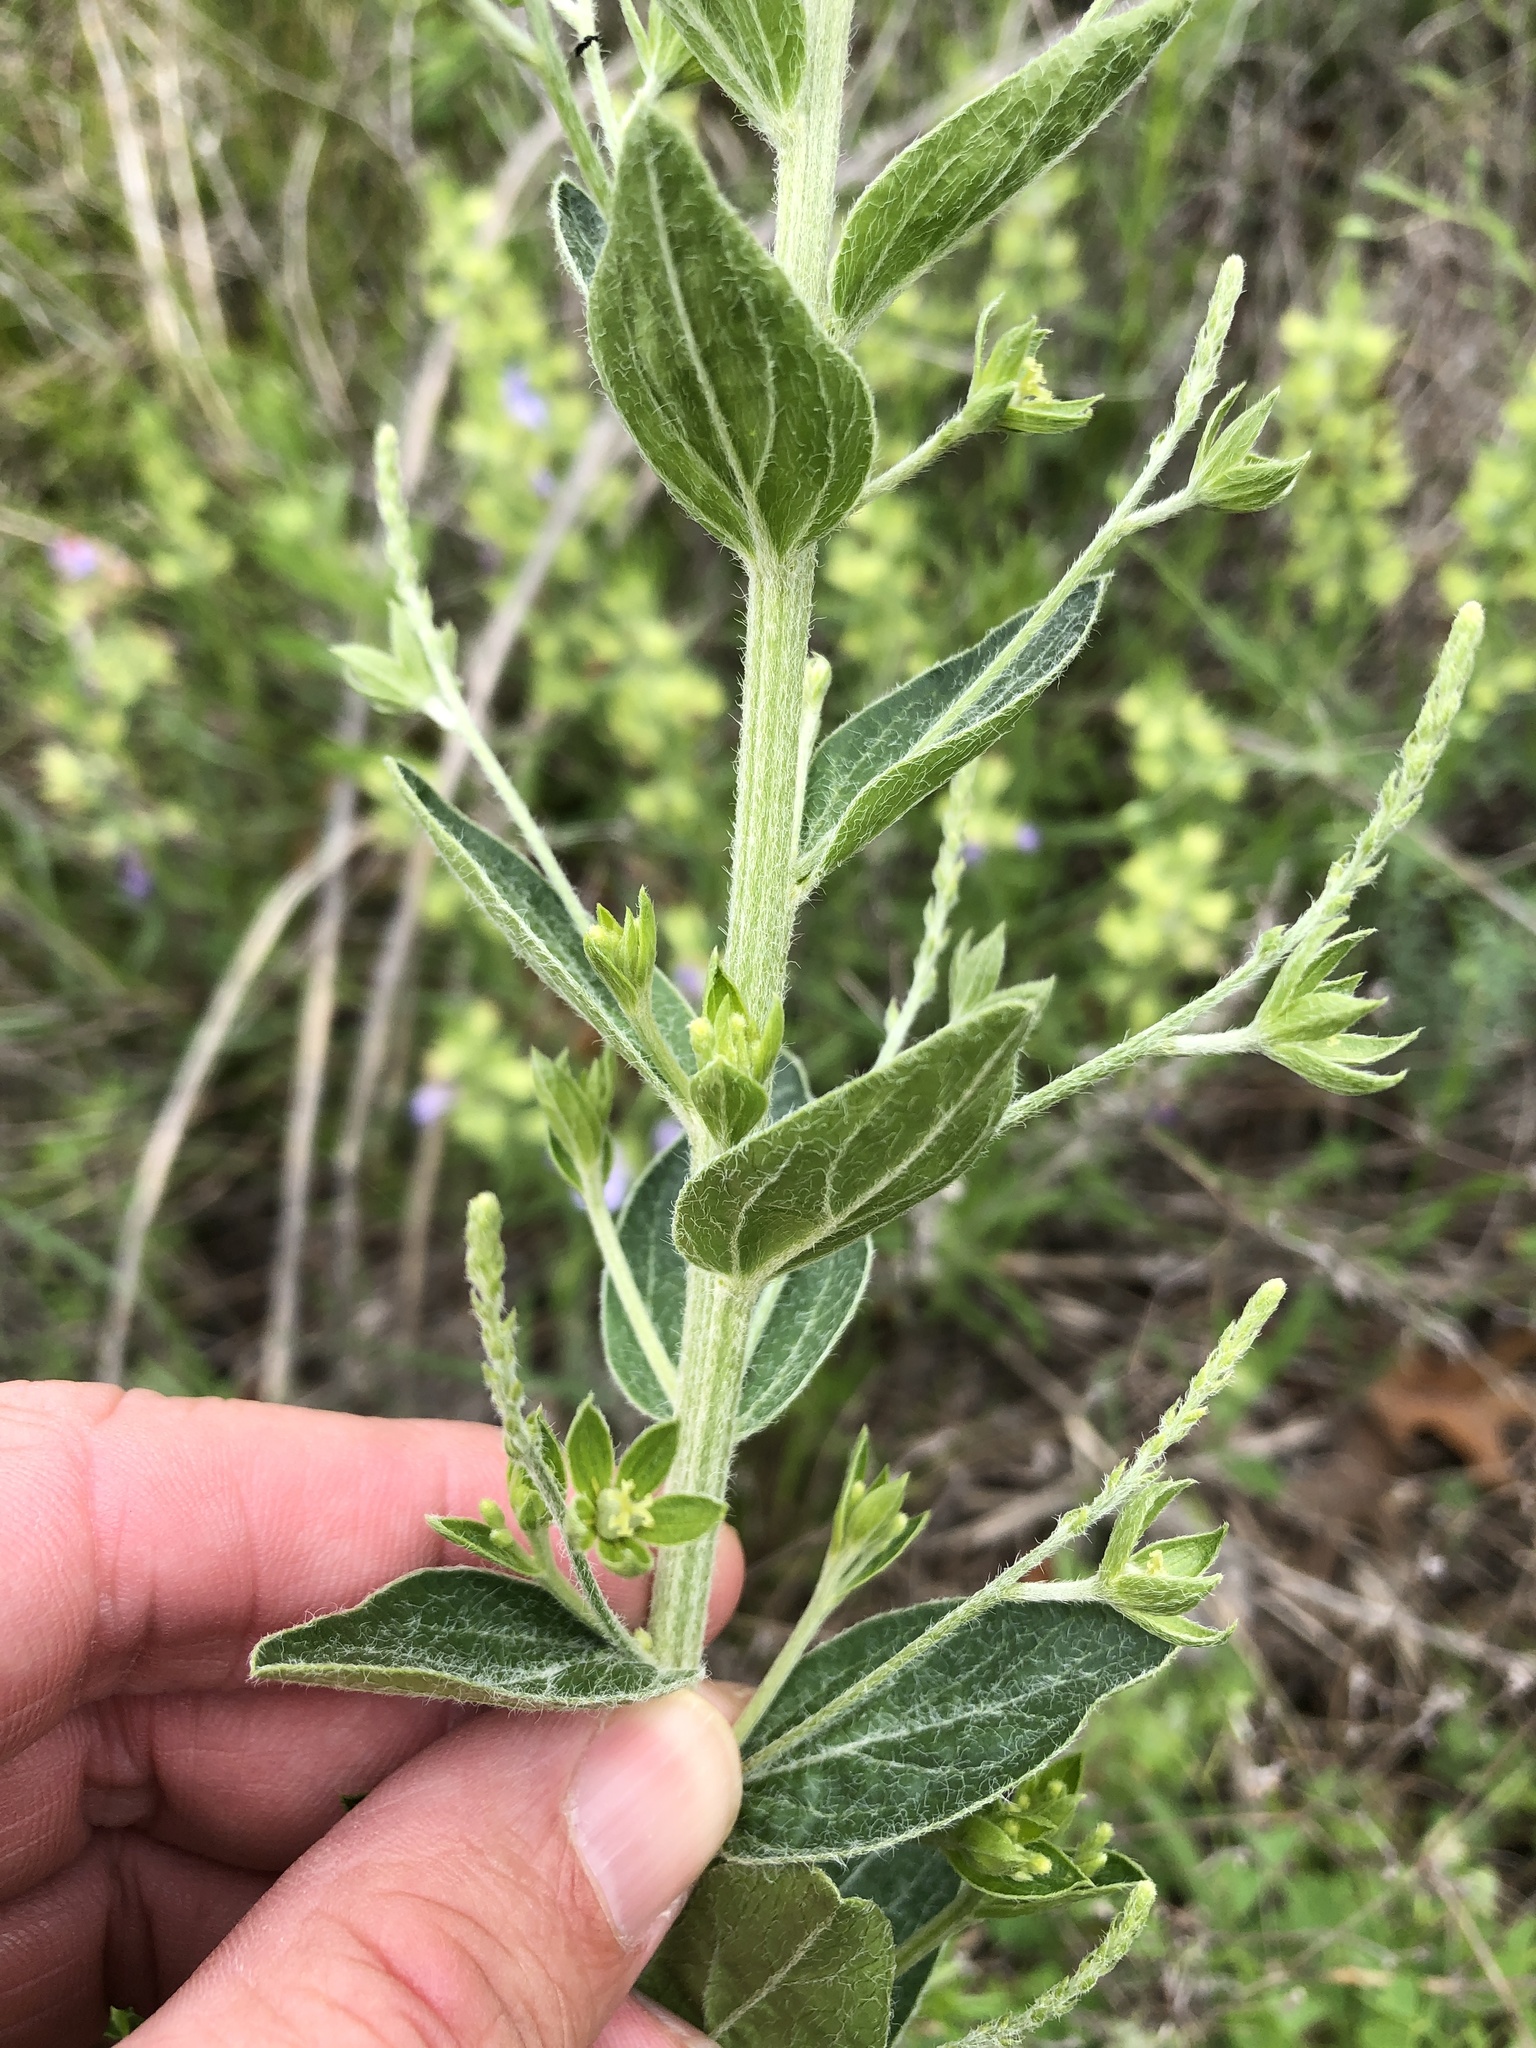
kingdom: Plantae
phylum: Tracheophyta
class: Magnoliopsida
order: Malpighiales
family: Euphorbiaceae
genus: Ditaxis
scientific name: Ditaxis mercurialina
